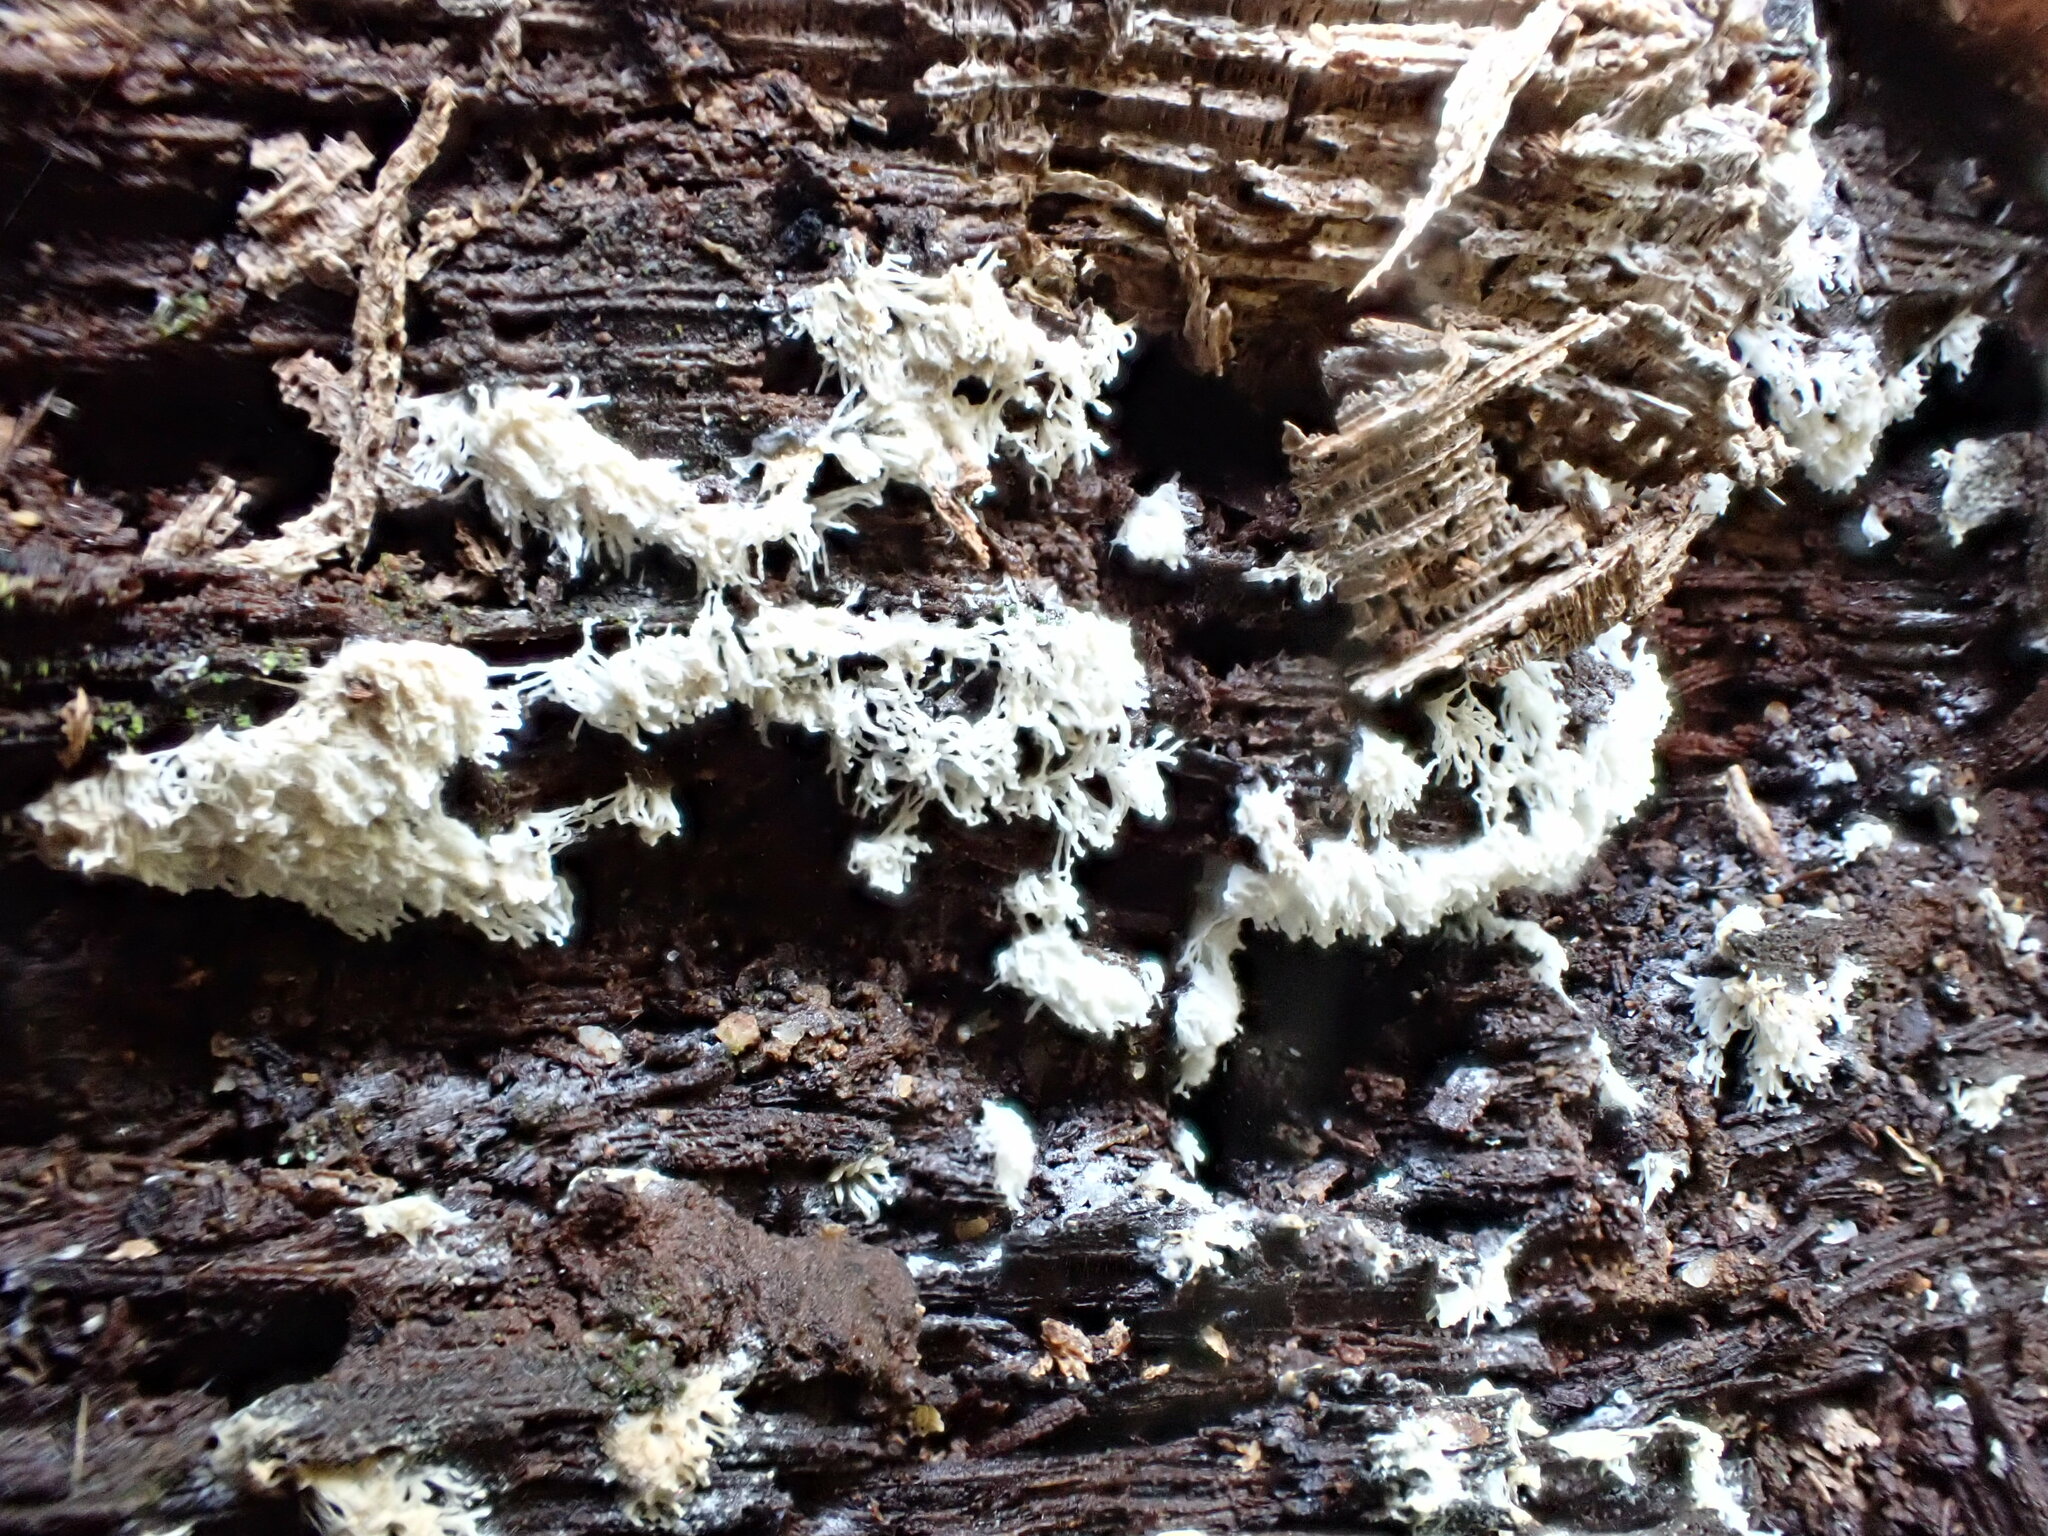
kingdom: Protozoa
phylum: Mycetozoa
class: Protosteliomycetes
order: Ceratiomyxales
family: Ceratiomyxaceae
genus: Ceratiomyxa
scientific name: Ceratiomyxa fruticulosa
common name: Honeycomb coral slime mold
